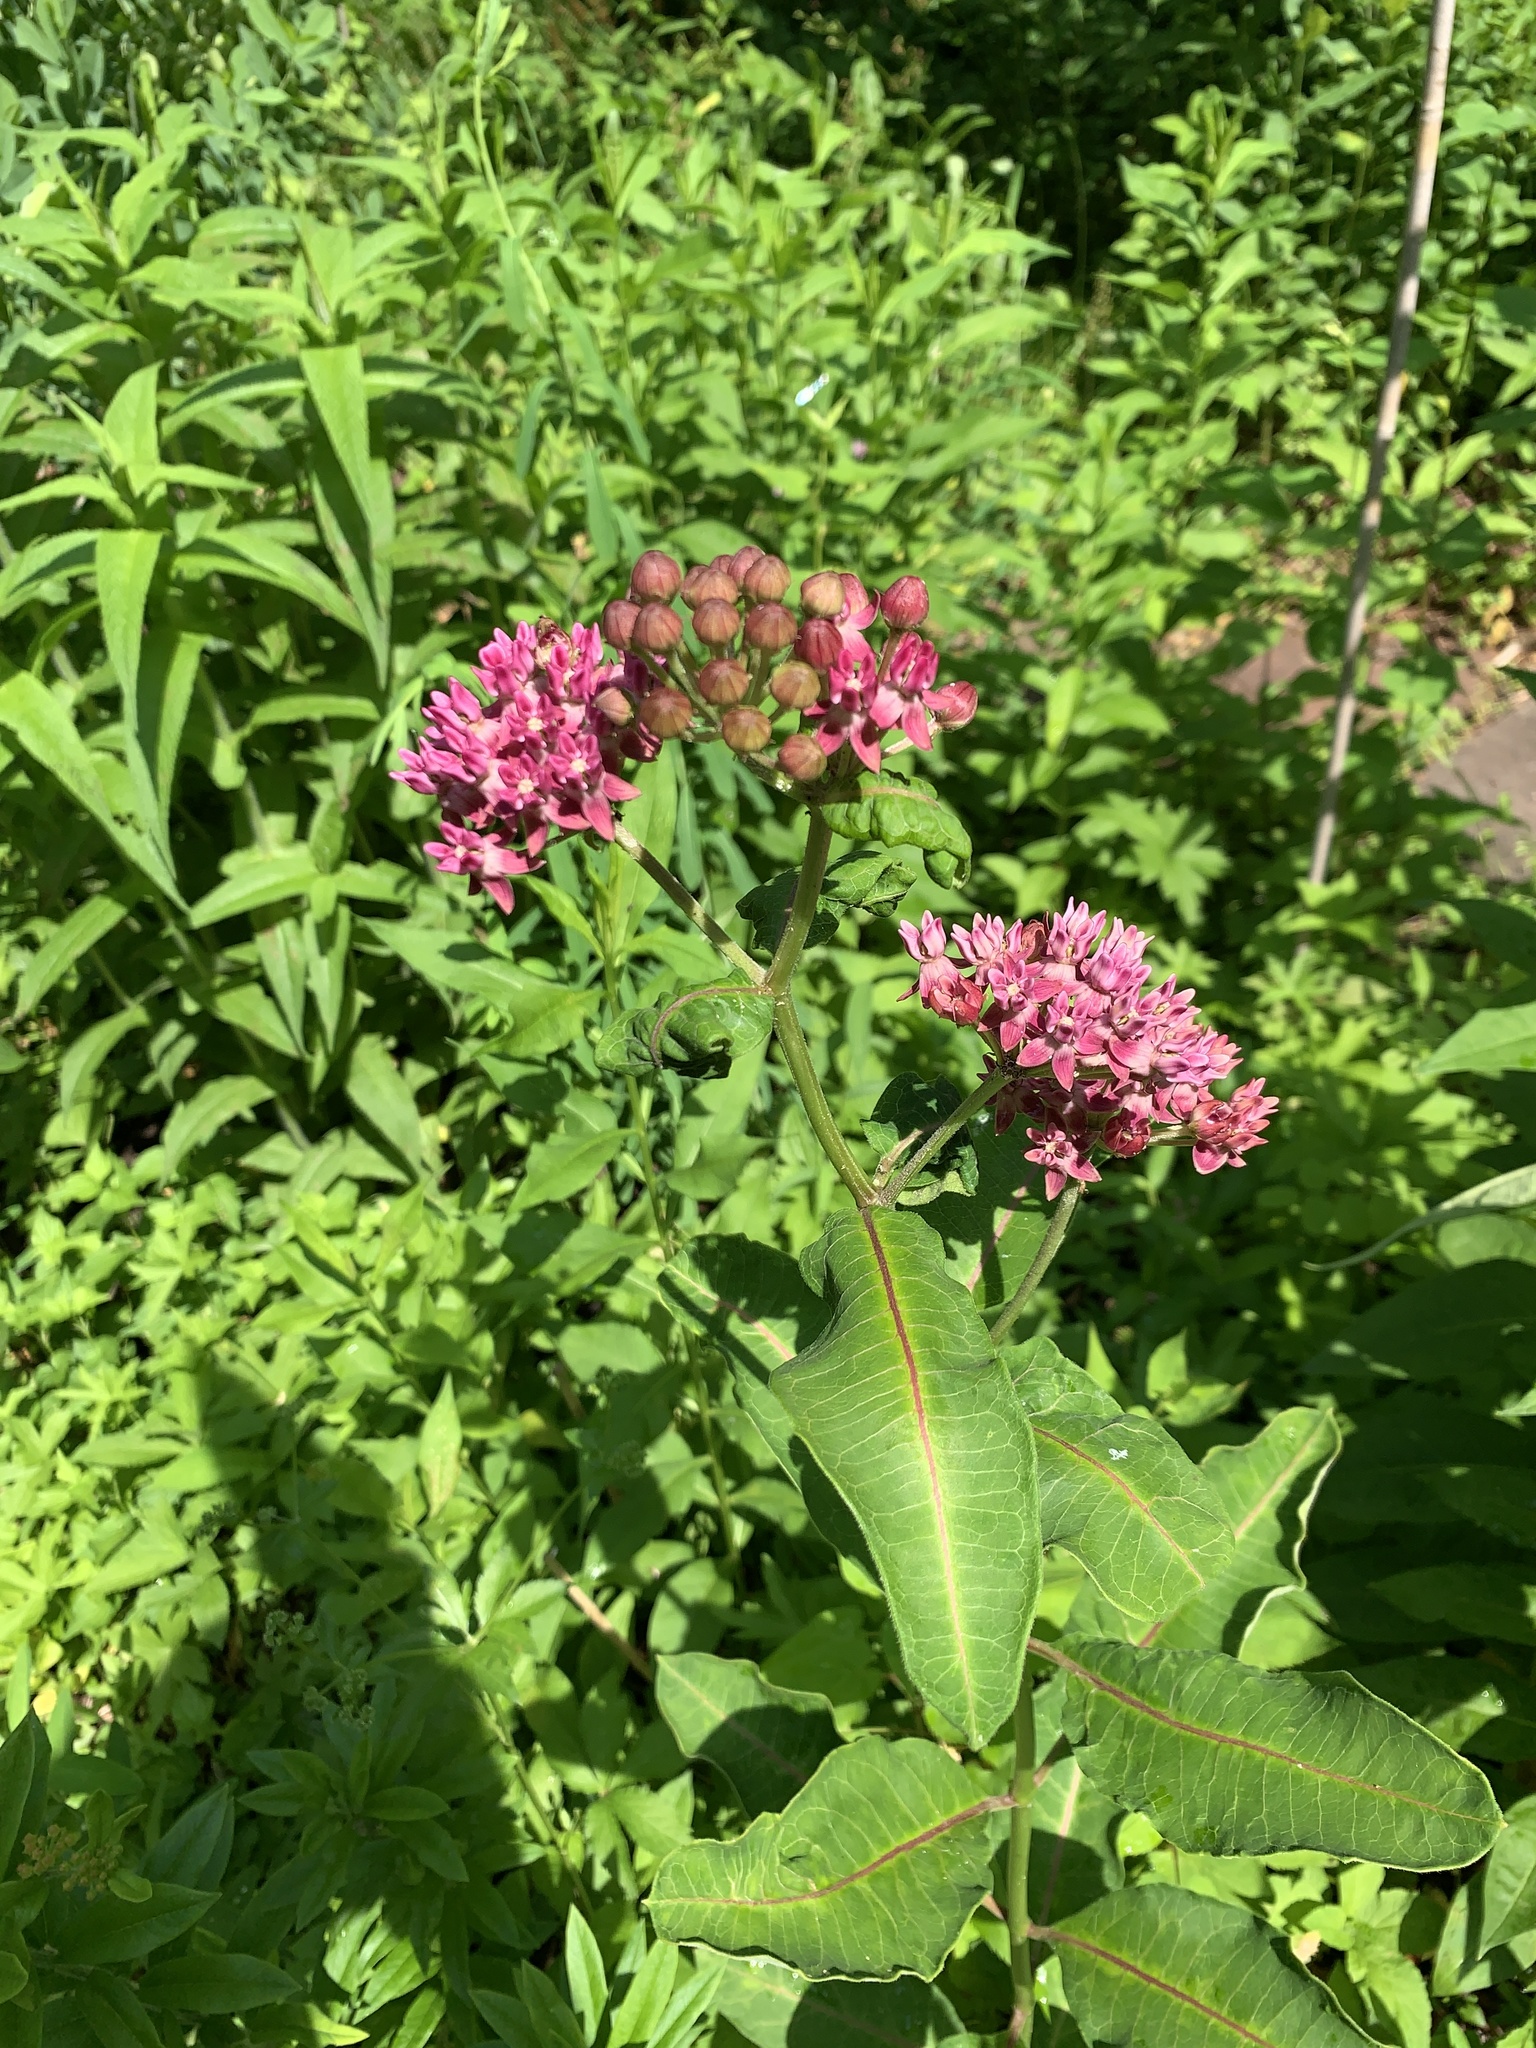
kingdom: Plantae
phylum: Tracheophyta
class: Magnoliopsida
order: Gentianales
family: Apocynaceae
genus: Asclepias
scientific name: Asclepias purpurascens
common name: Purple milkweed
